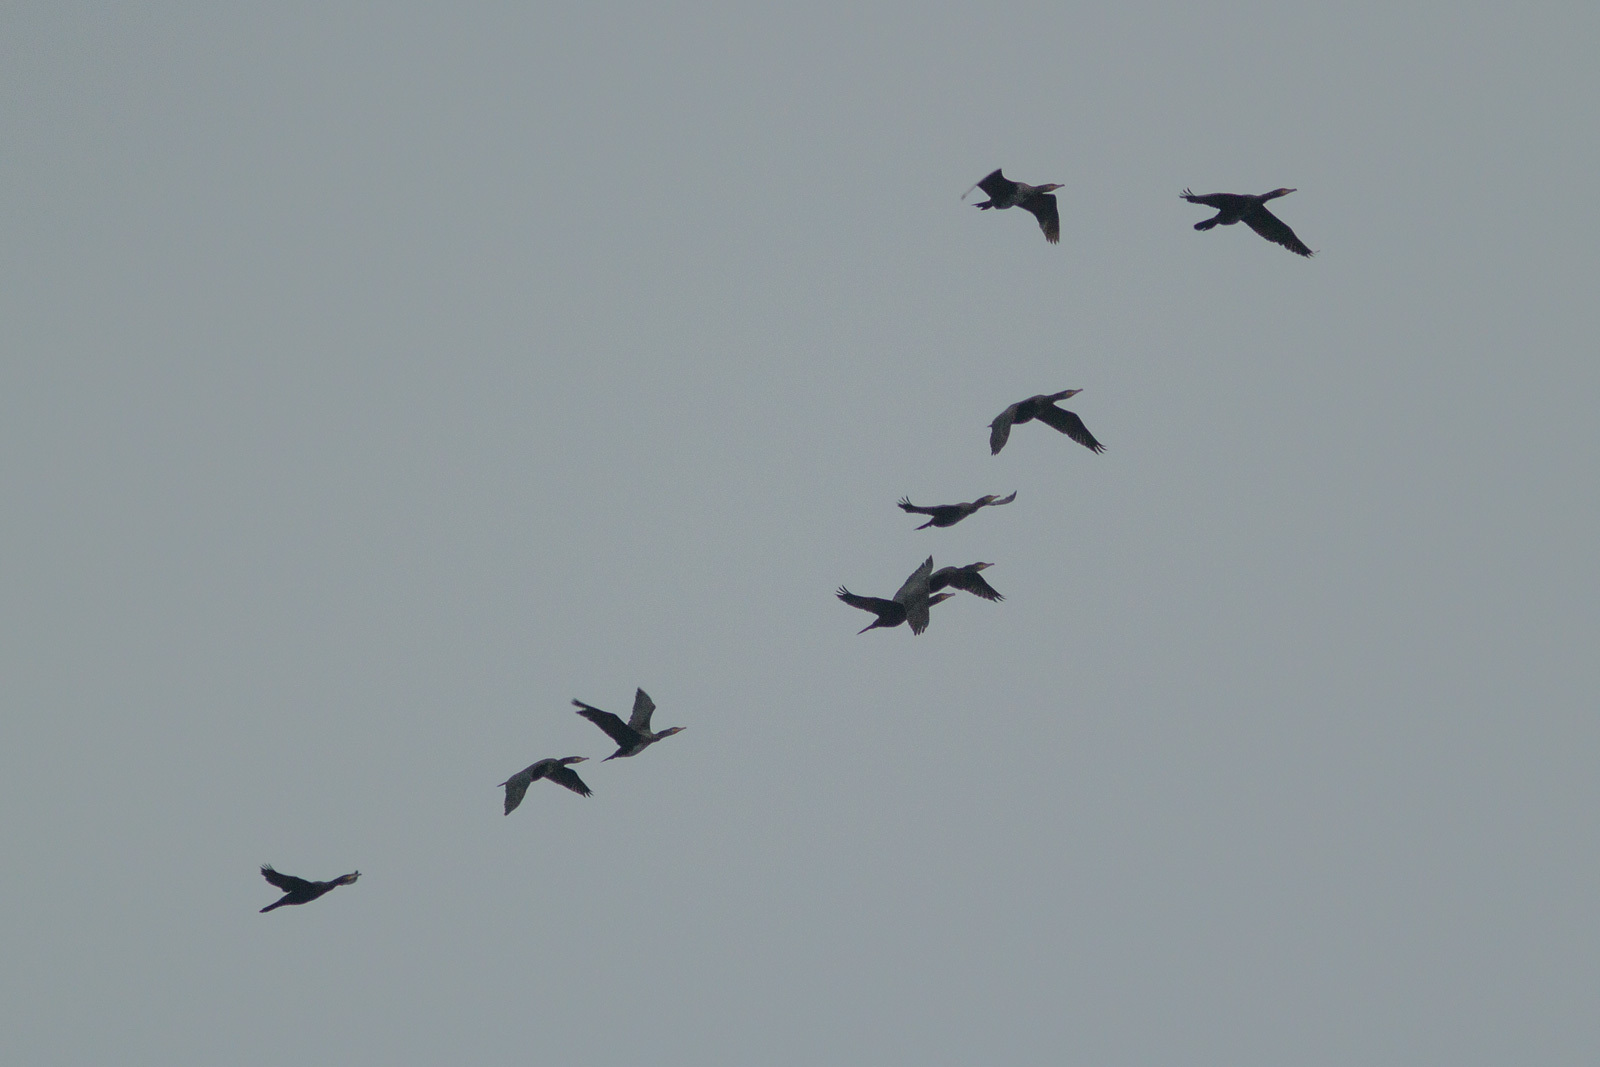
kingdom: Animalia
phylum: Chordata
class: Aves
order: Suliformes
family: Phalacrocoracidae
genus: Phalacrocorax
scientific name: Phalacrocorax carbo
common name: Great cormorant
